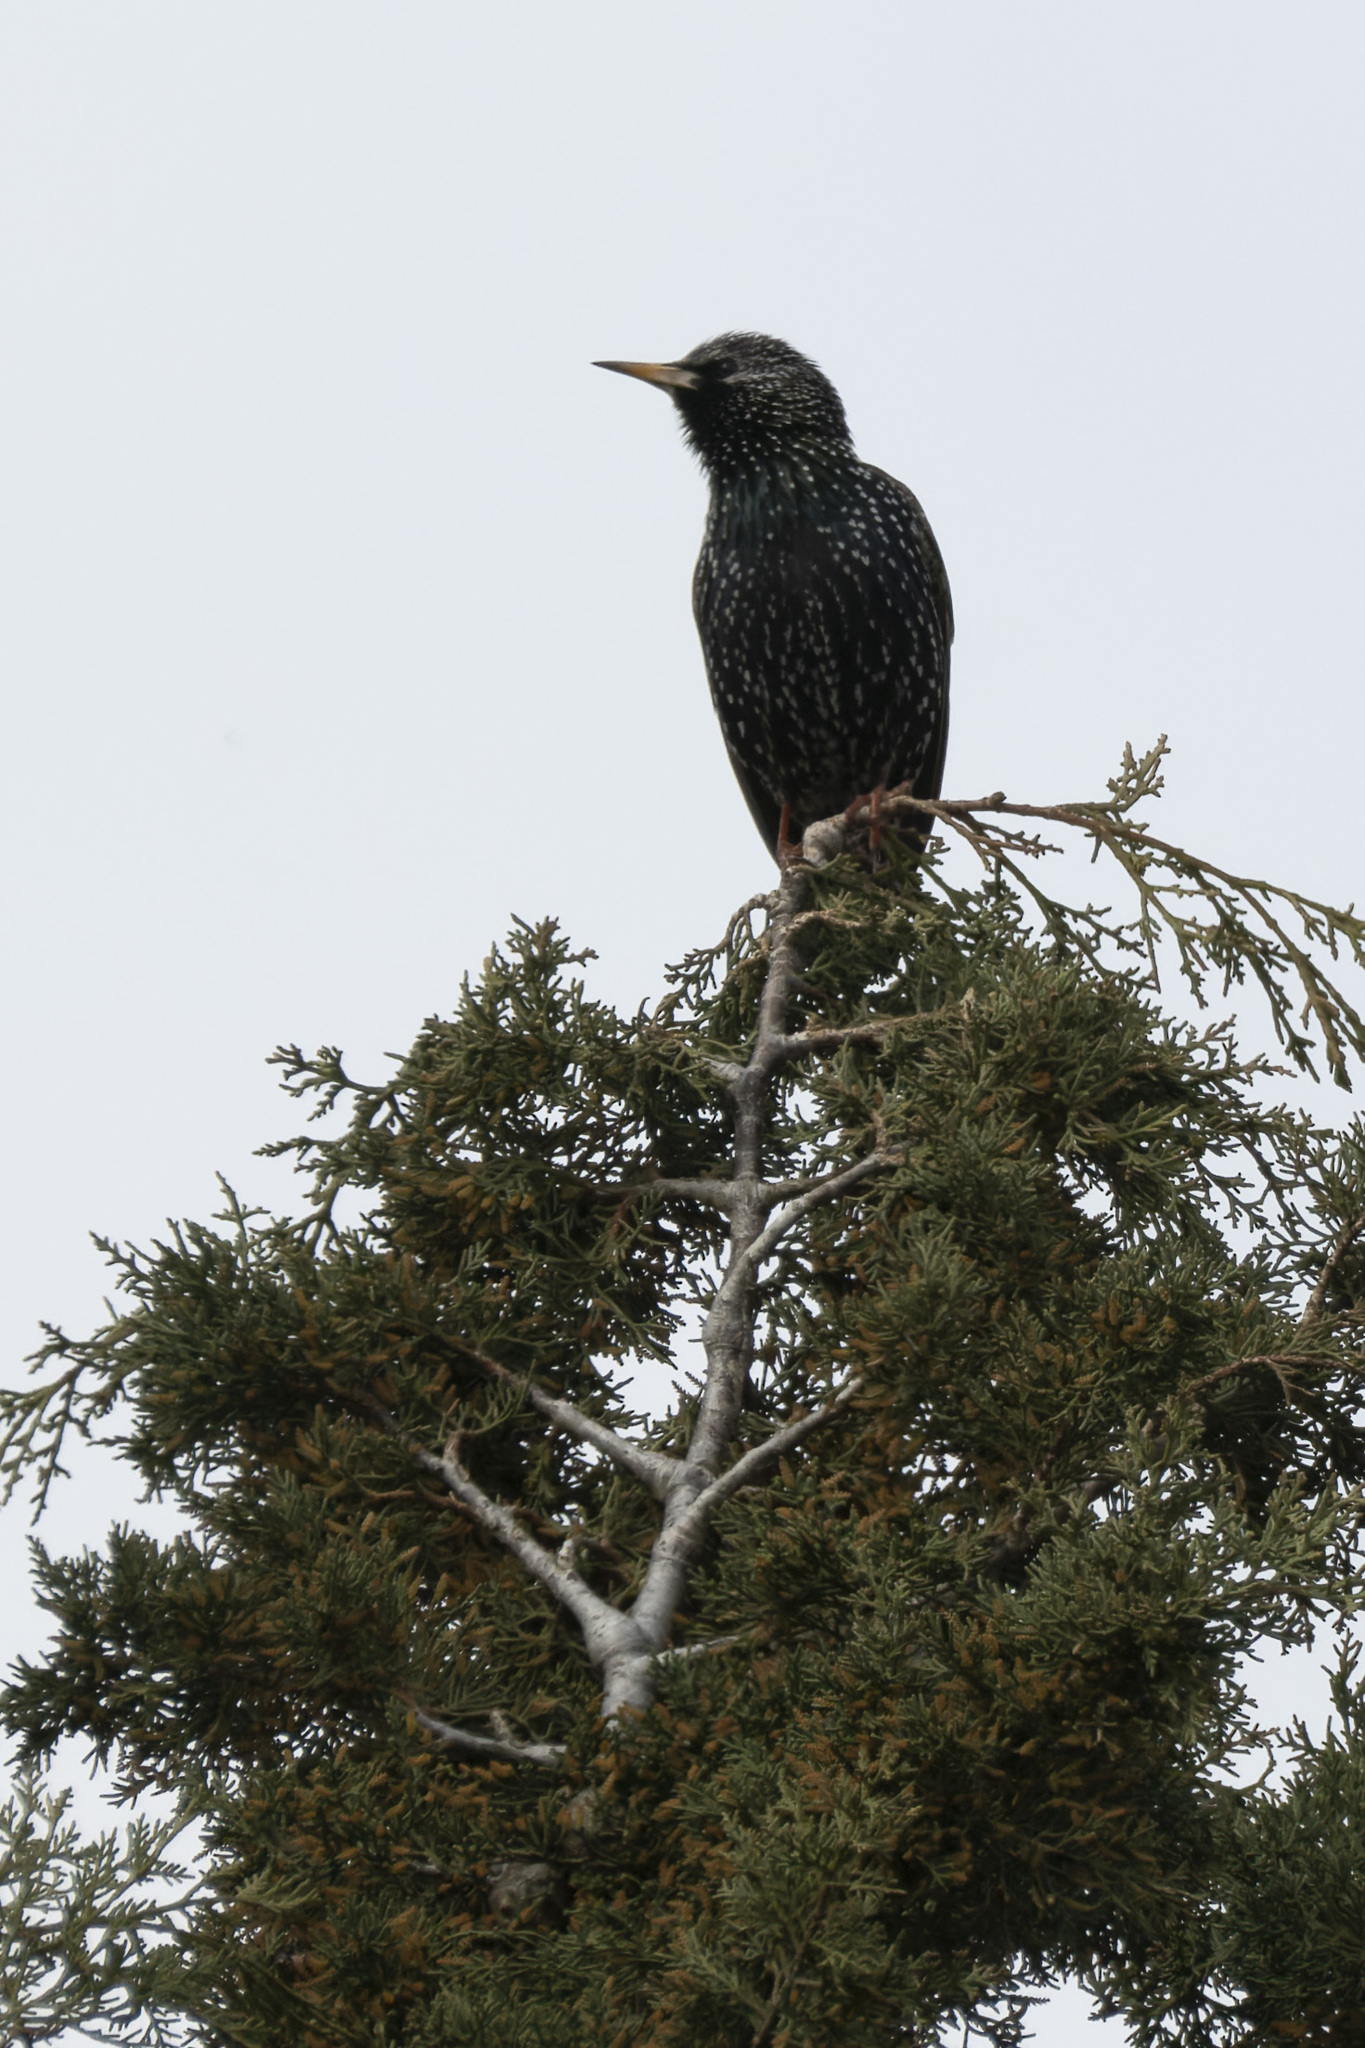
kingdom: Animalia
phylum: Chordata
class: Aves
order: Passeriformes
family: Sturnidae
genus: Sturnus
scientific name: Sturnus vulgaris
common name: Common starling
